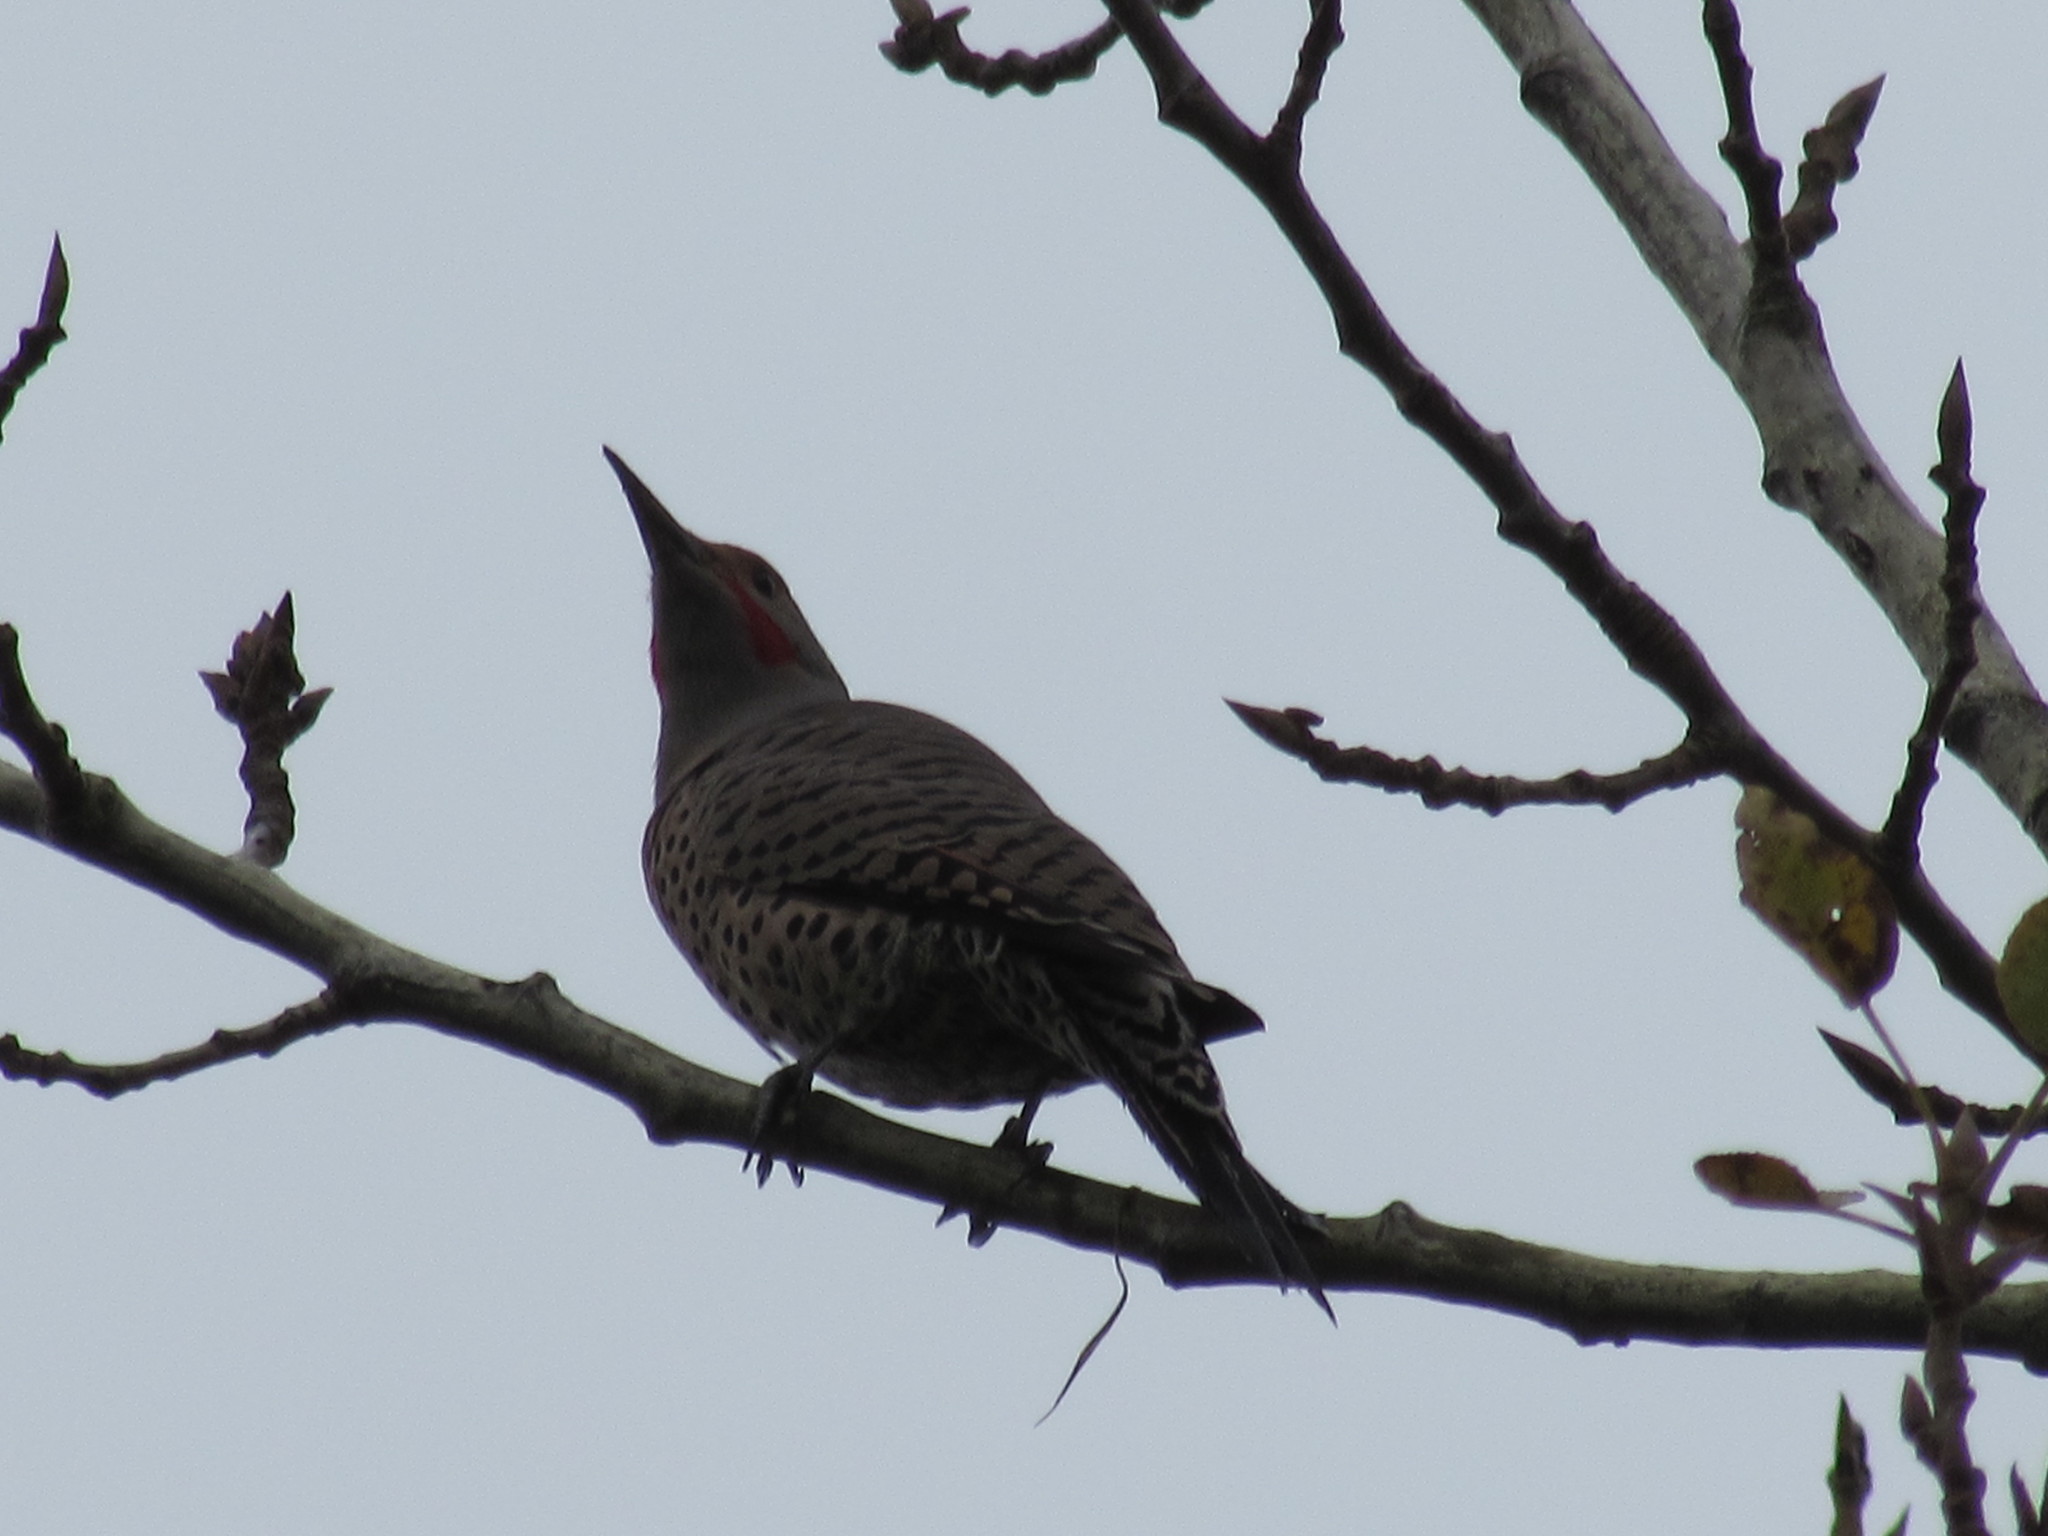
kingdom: Animalia
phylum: Chordata
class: Aves
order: Piciformes
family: Picidae
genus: Colaptes
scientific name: Colaptes auratus
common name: Northern flicker
